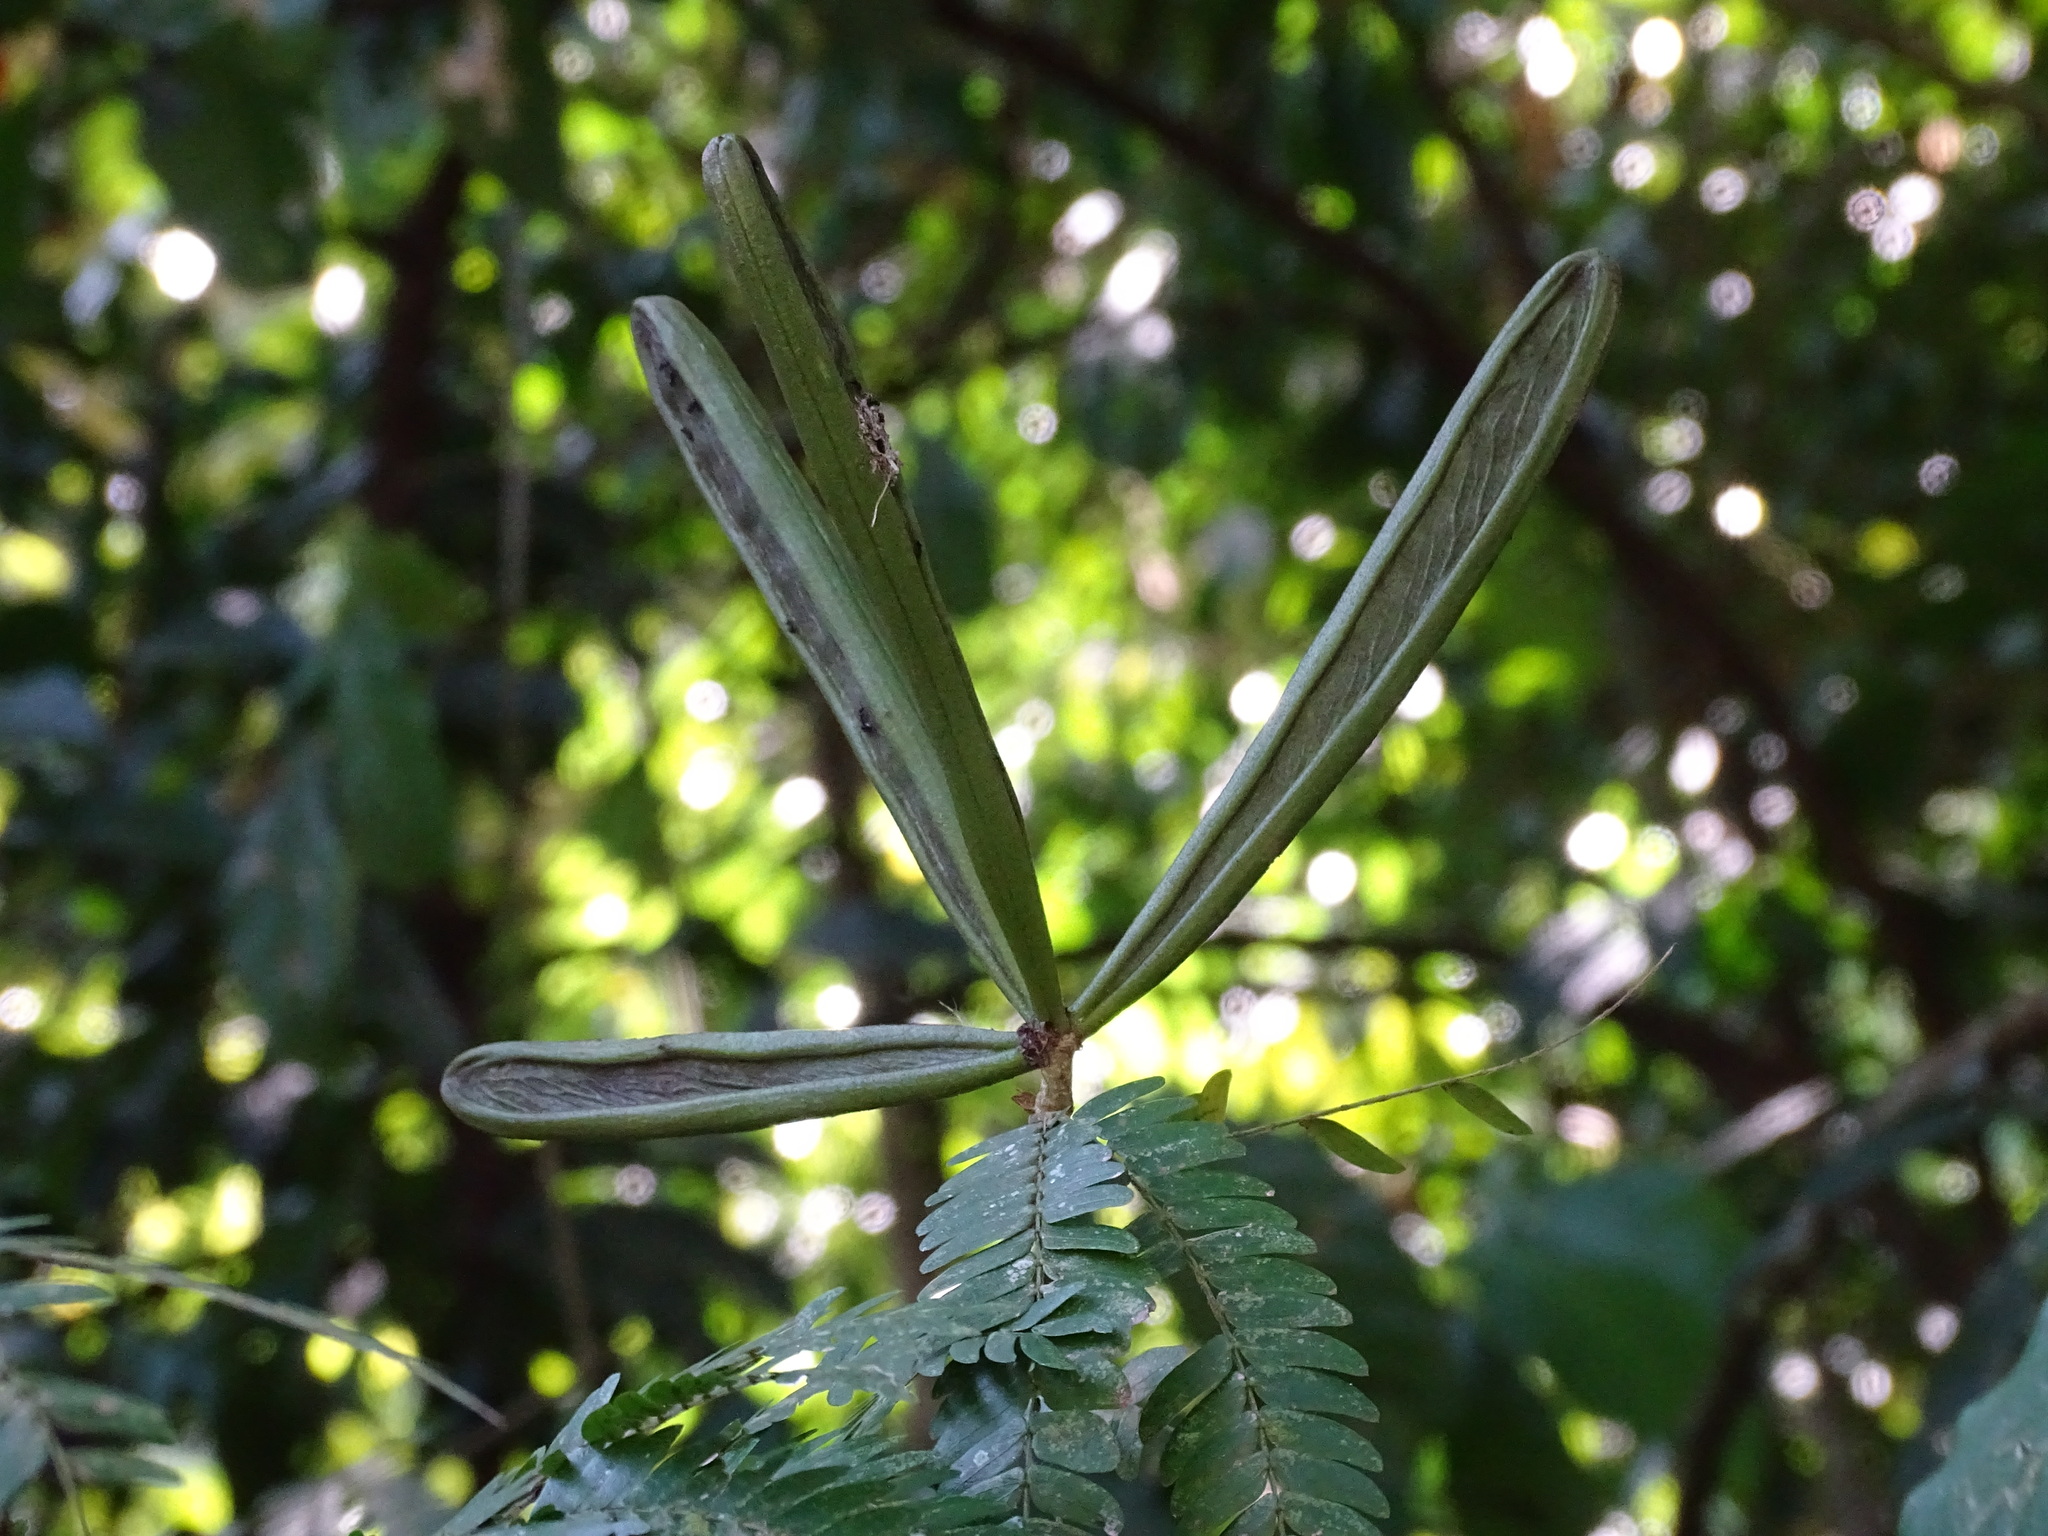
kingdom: Plantae
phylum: Tracheophyta
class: Magnoliopsida
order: Fabales
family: Fabaceae
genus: Calliandra
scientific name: Calliandra magdalenae
